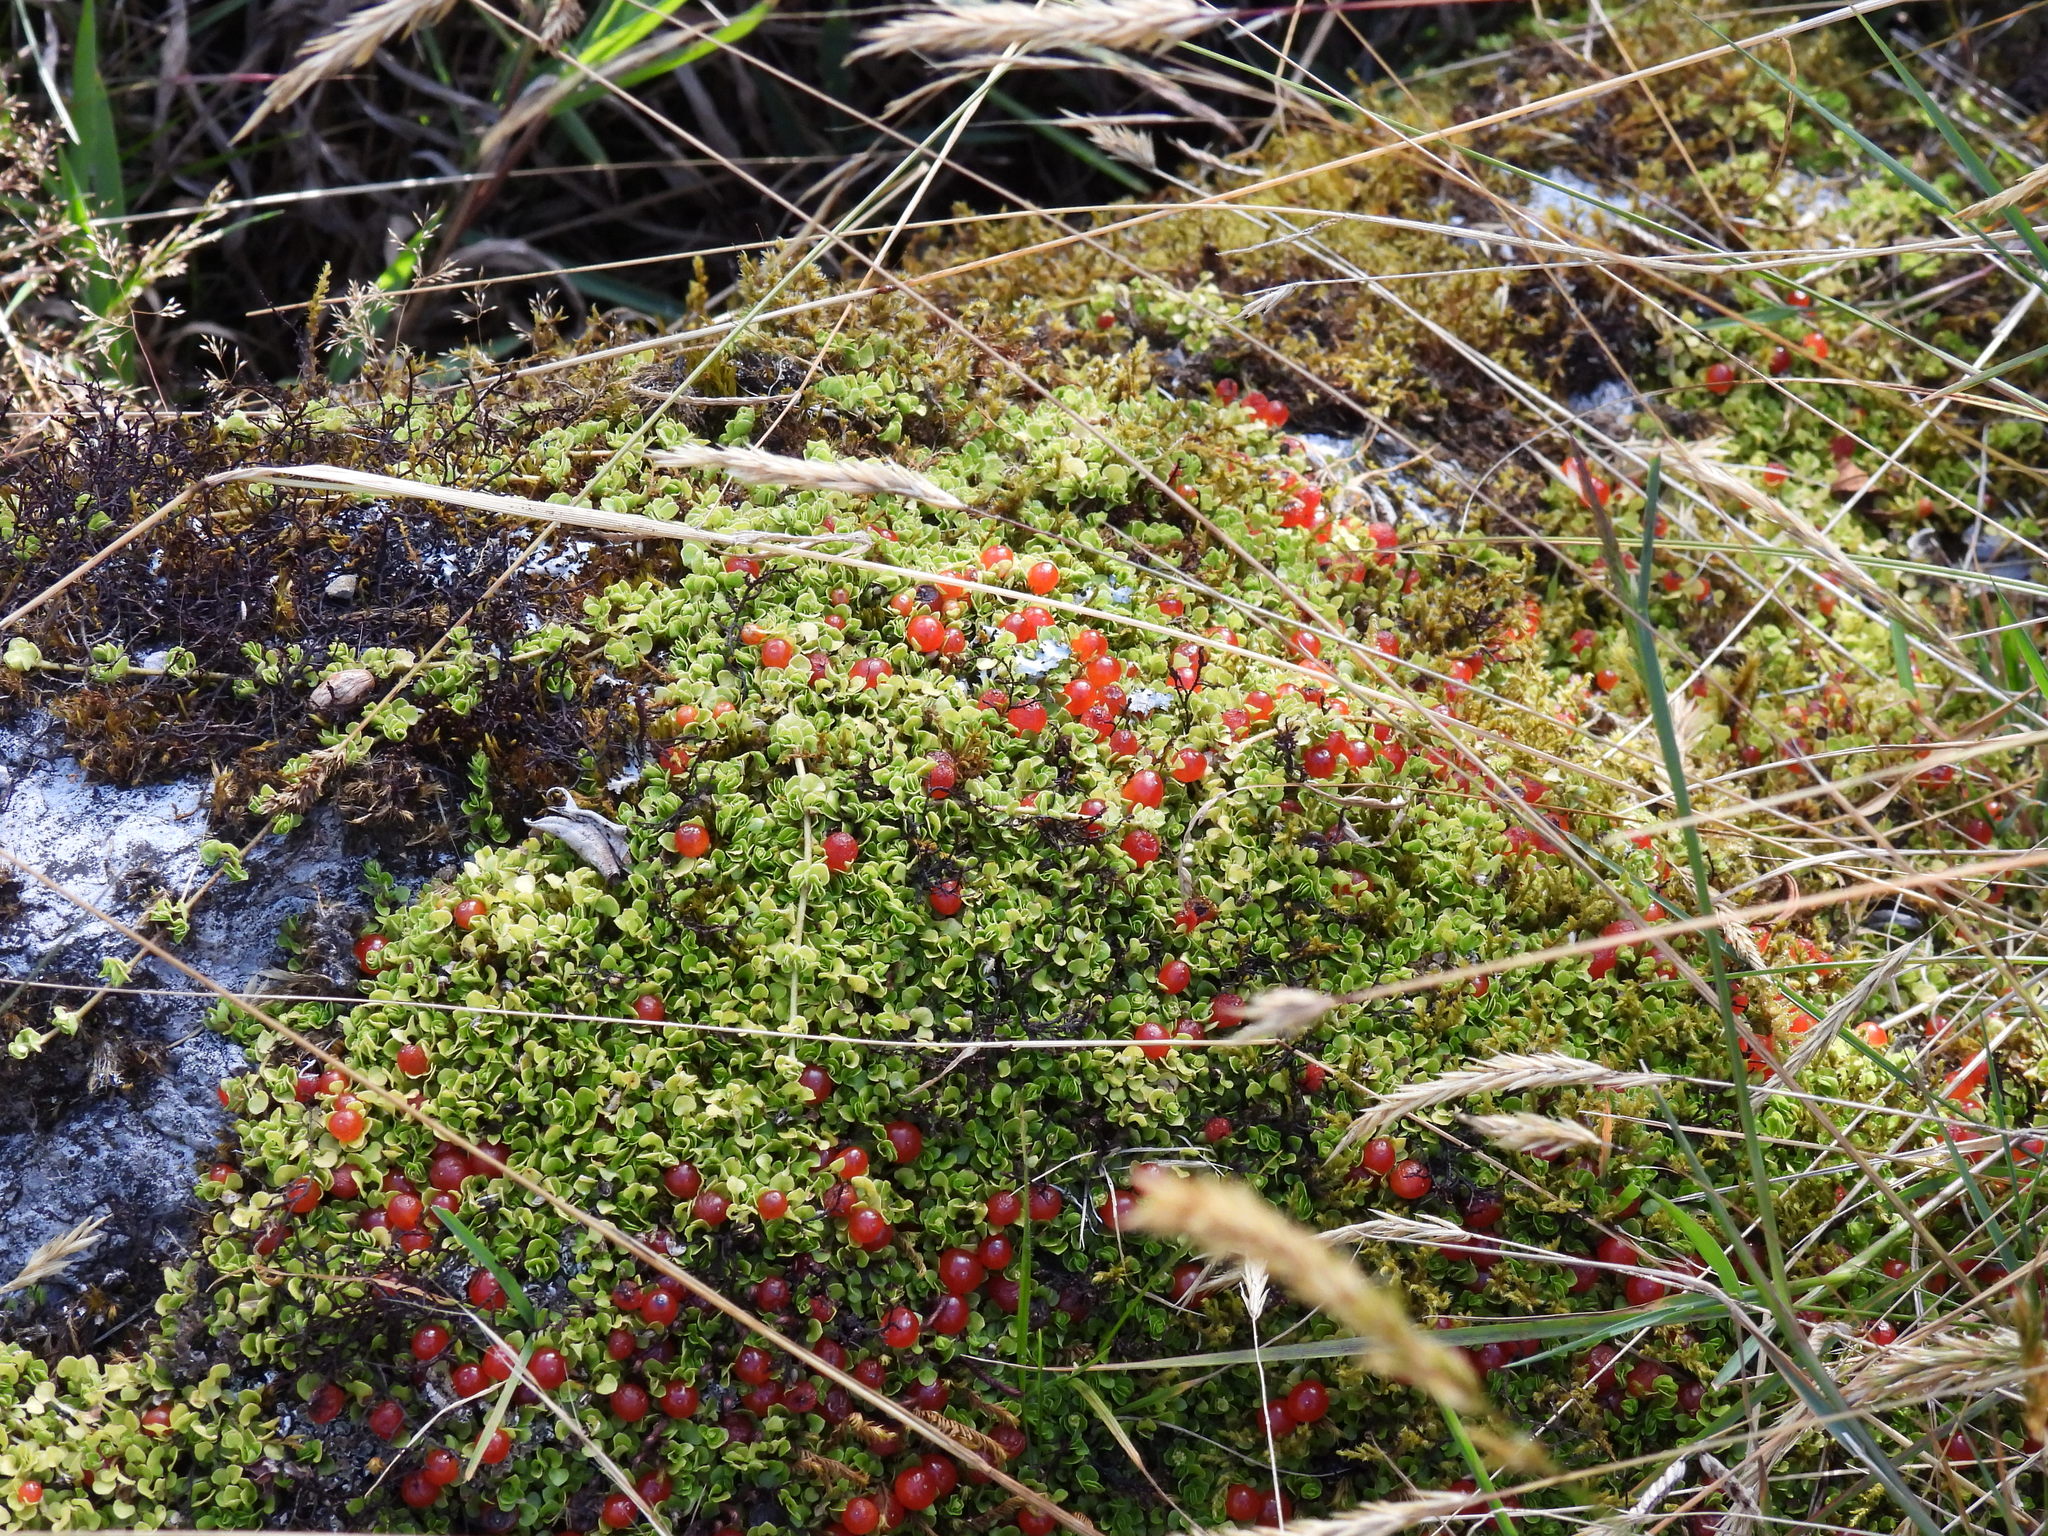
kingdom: Plantae
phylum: Tracheophyta
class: Magnoliopsida
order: Gentianales
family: Rubiaceae
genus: Nertera
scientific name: Nertera granadensis
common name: Beadplant
